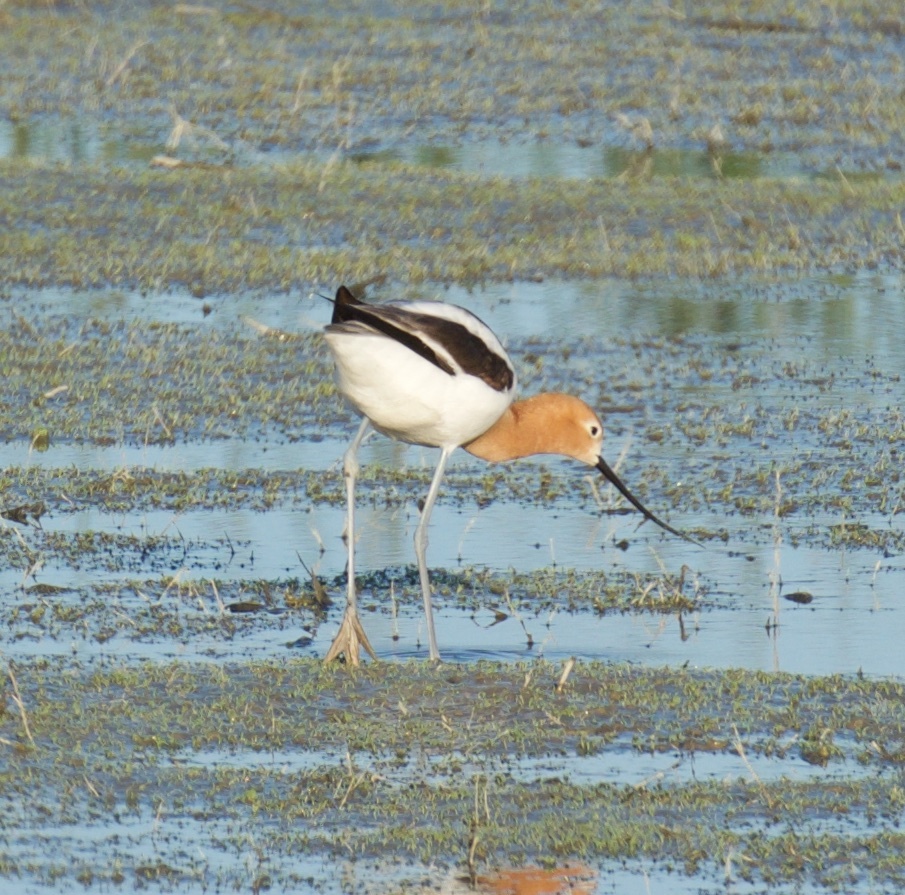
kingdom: Animalia
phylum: Chordata
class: Aves
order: Charadriiformes
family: Recurvirostridae
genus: Recurvirostra
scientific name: Recurvirostra americana
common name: American avocet
